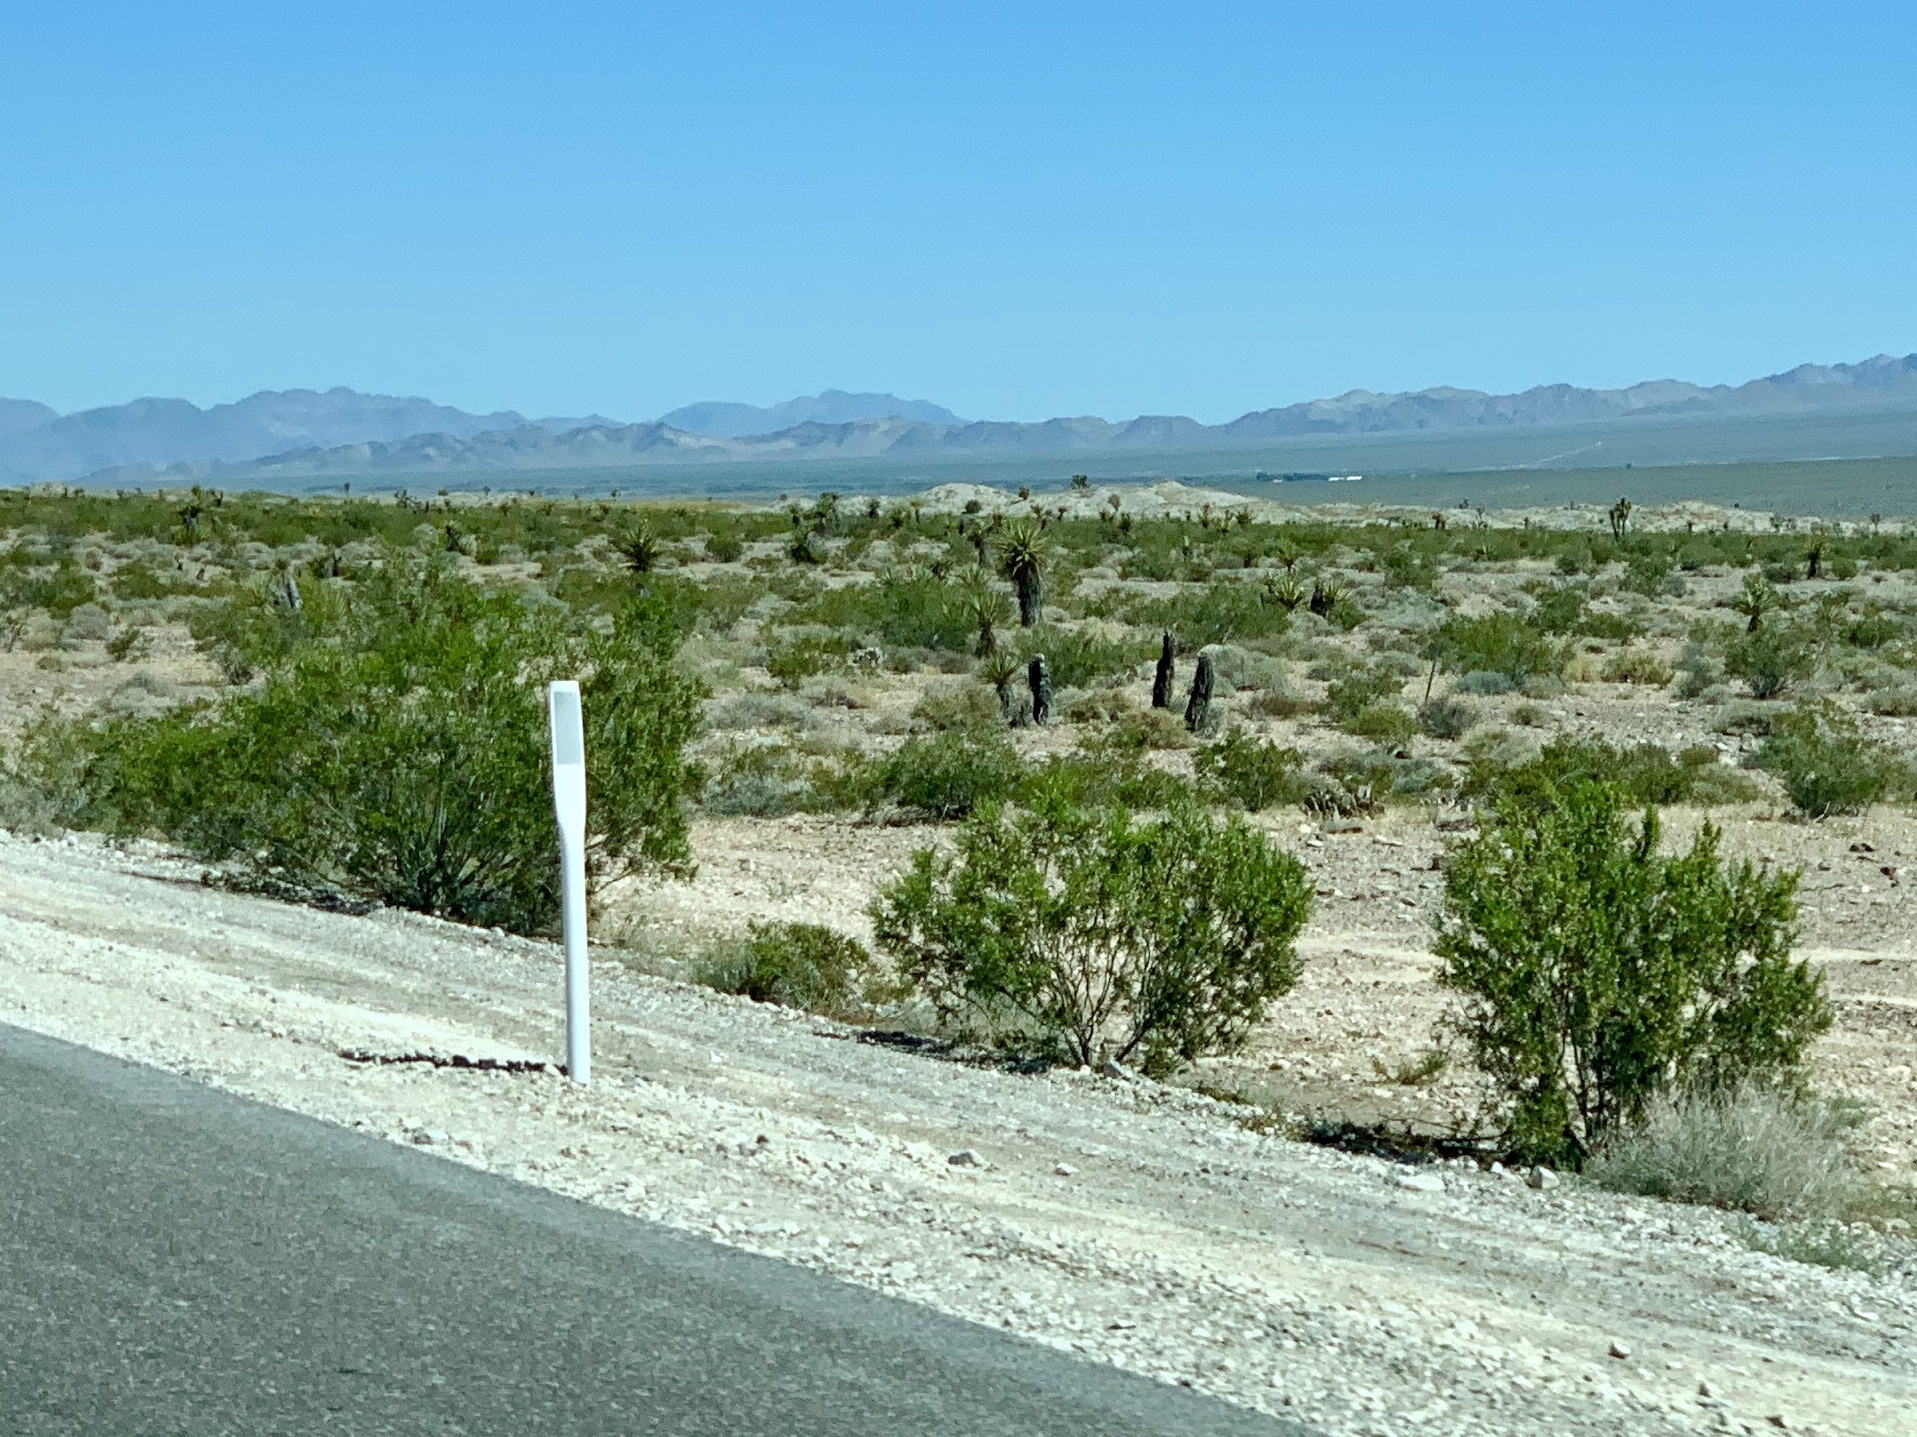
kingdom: Plantae
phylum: Tracheophyta
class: Magnoliopsida
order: Zygophyllales
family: Zygophyllaceae
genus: Larrea
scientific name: Larrea tridentata
